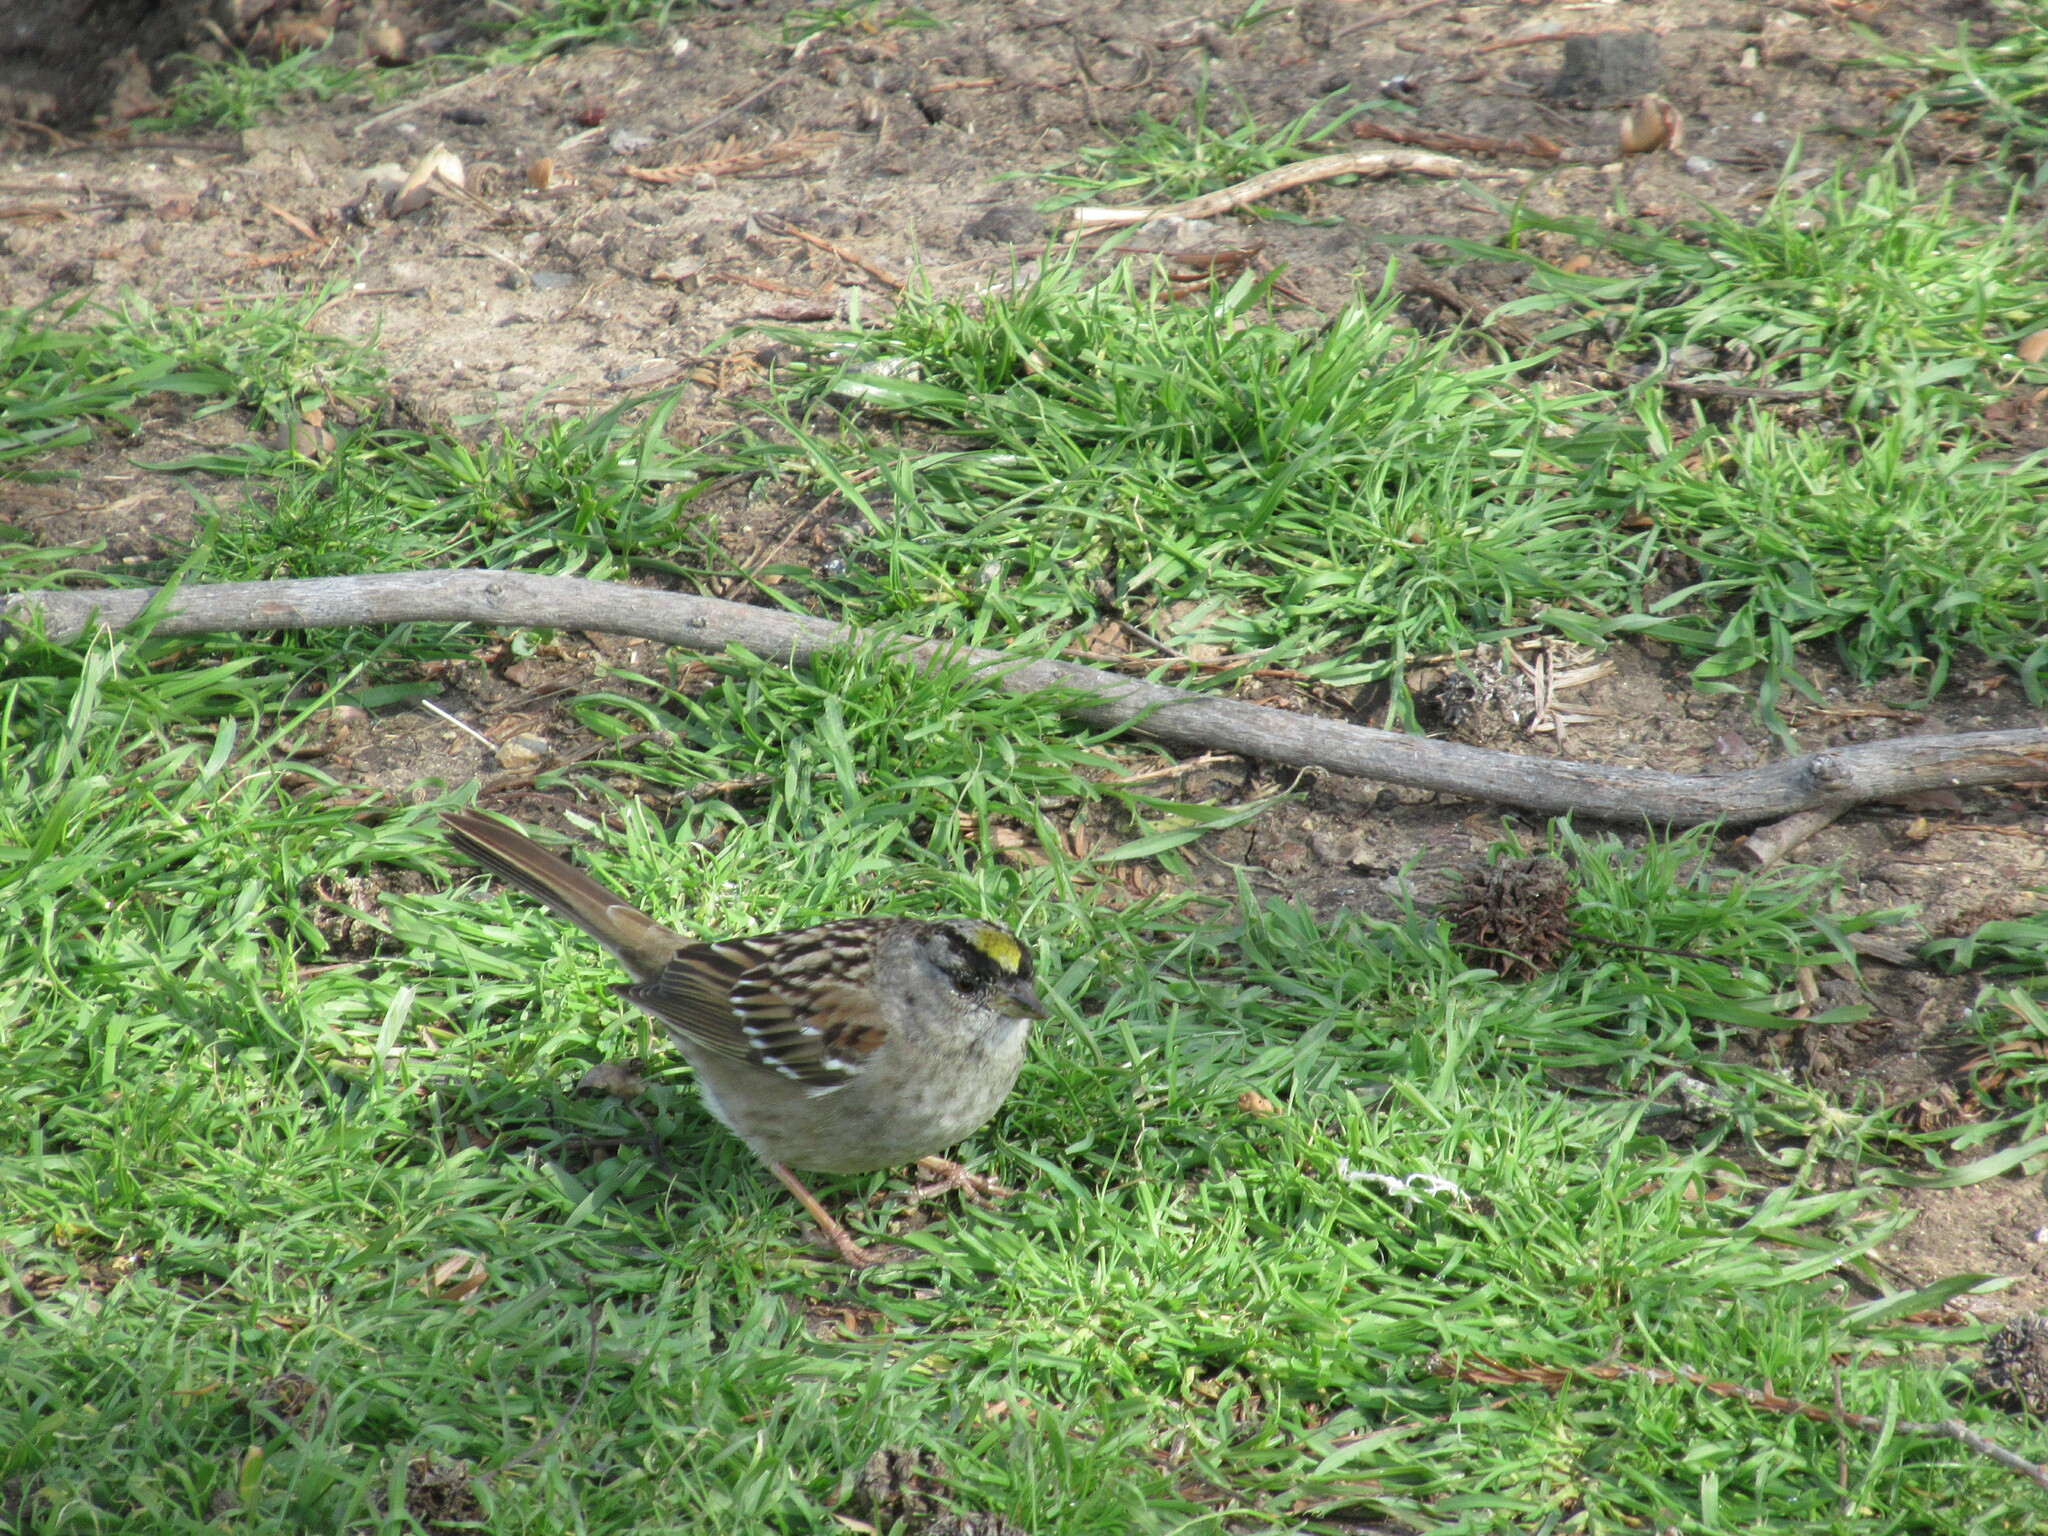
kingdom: Animalia
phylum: Chordata
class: Aves
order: Passeriformes
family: Passerellidae
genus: Zonotrichia
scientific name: Zonotrichia atricapilla
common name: Golden-crowned sparrow
